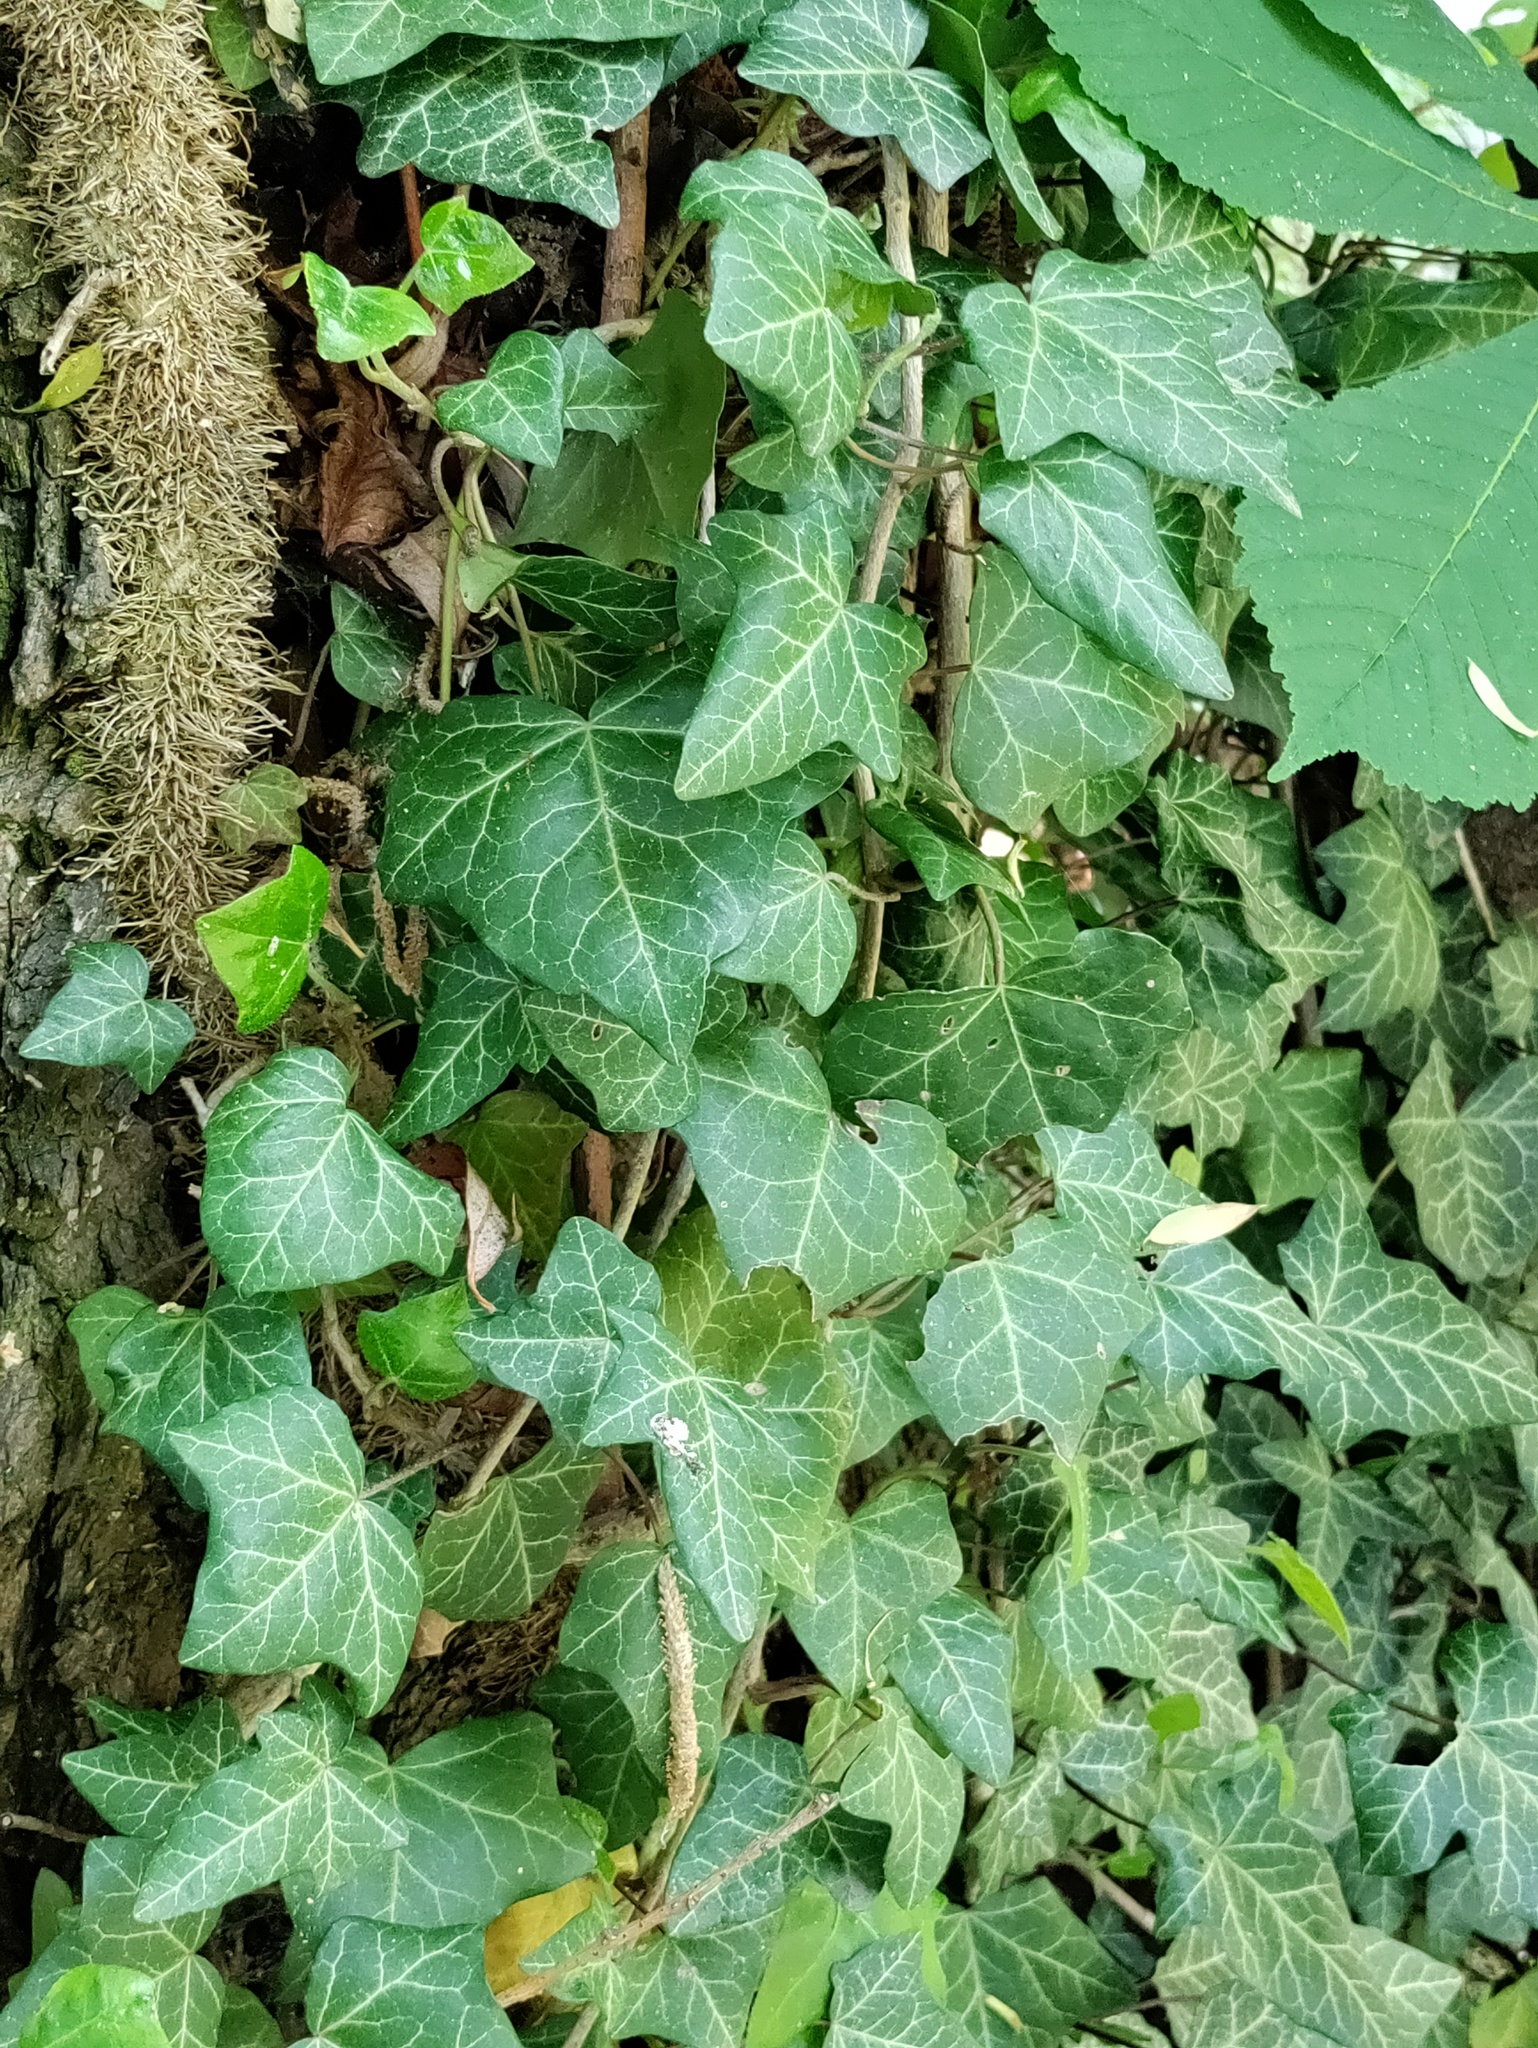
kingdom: Plantae
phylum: Tracheophyta
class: Magnoliopsida
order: Apiales
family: Araliaceae
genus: Hedera
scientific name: Hedera helix
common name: Ivy
